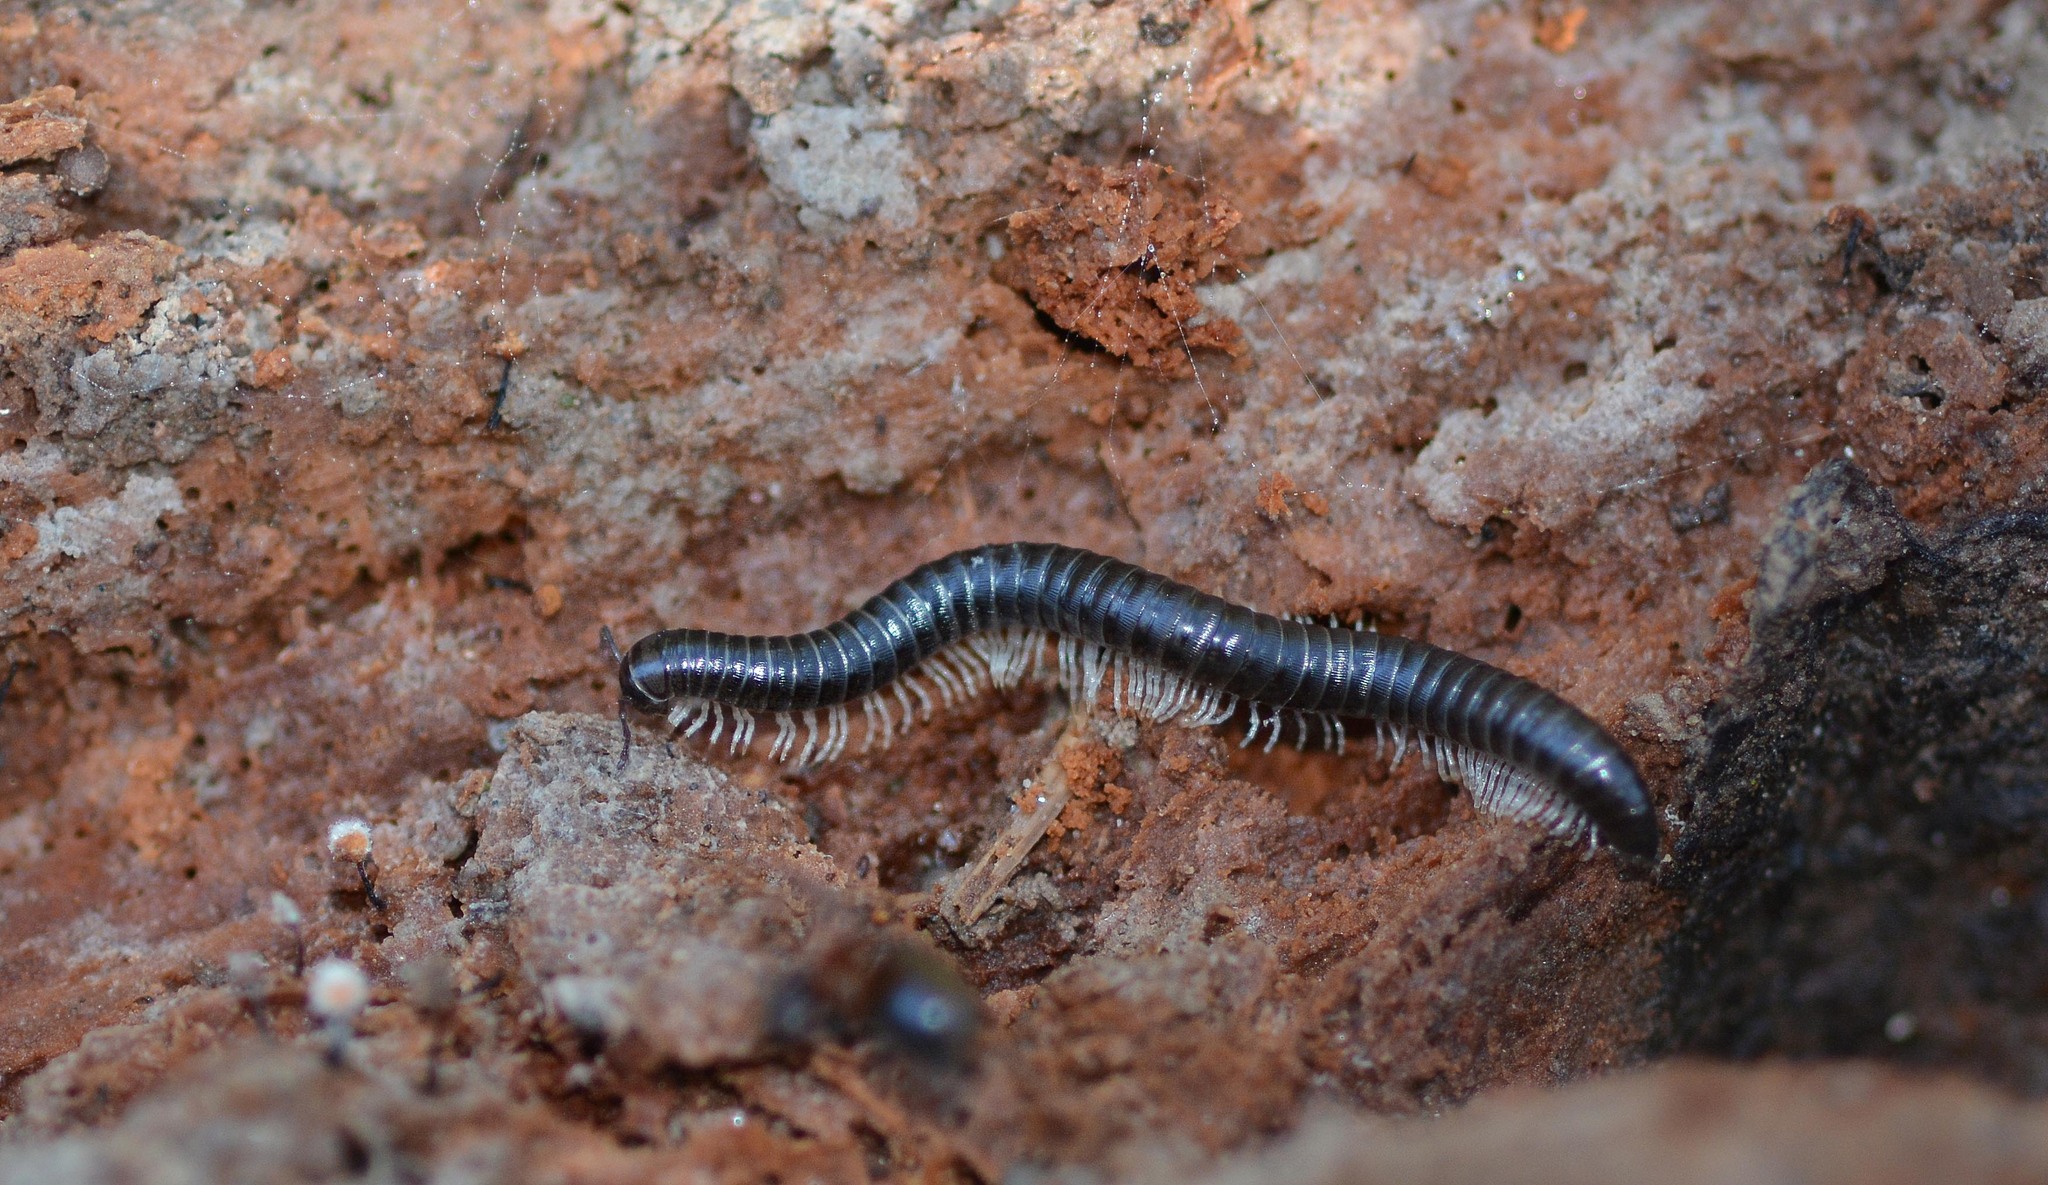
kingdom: Animalia
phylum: Arthropoda
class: Diplopoda
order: Julida
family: Julidae
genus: Tachypodoiulus
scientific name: Tachypodoiulus niger
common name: White-legged snake millipede
